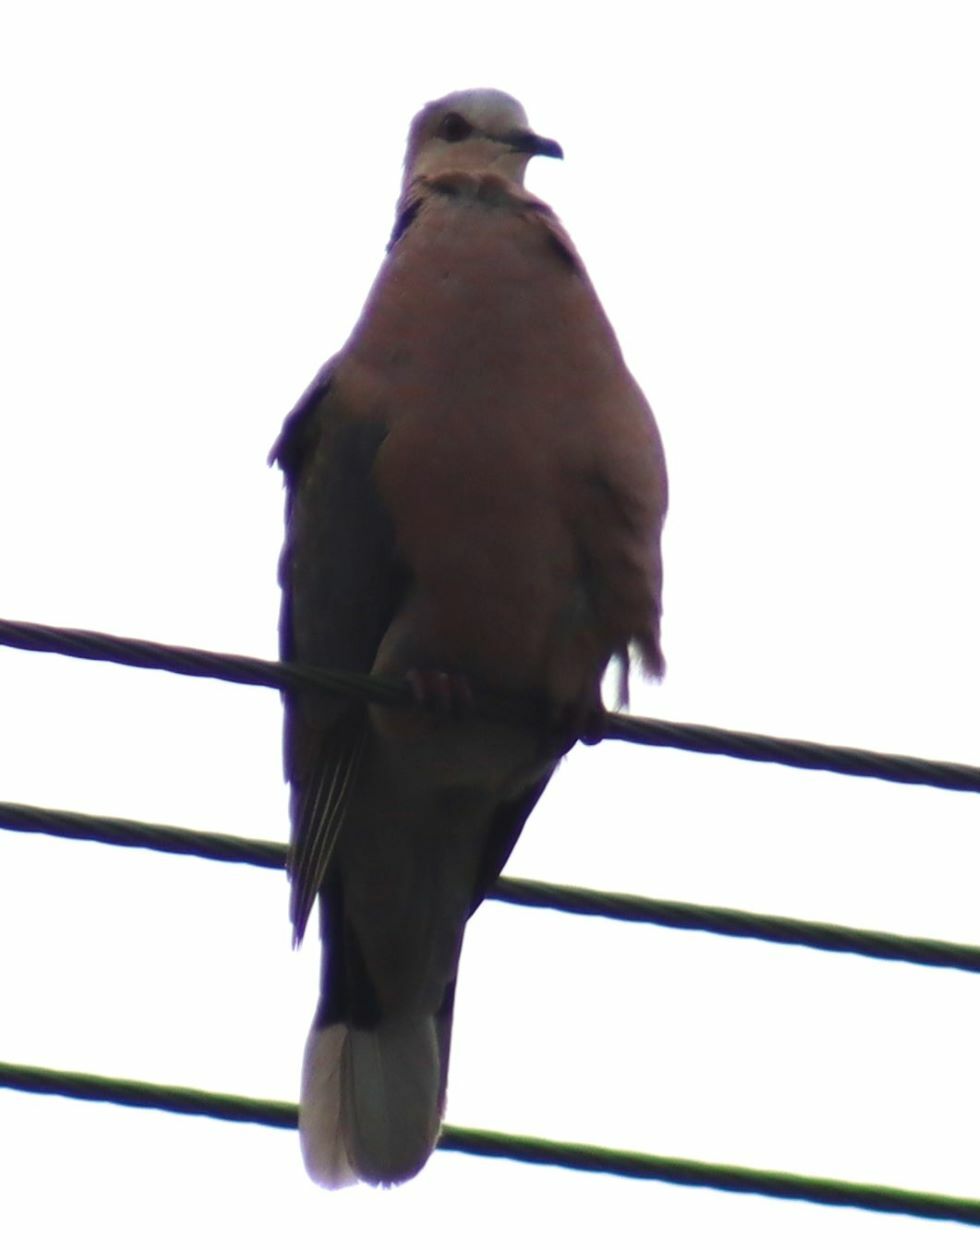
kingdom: Animalia
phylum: Chordata
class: Aves
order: Columbiformes
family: Columbidae
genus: Streptopelia
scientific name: Streptopelia semitorquata
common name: Red-eyed dove
